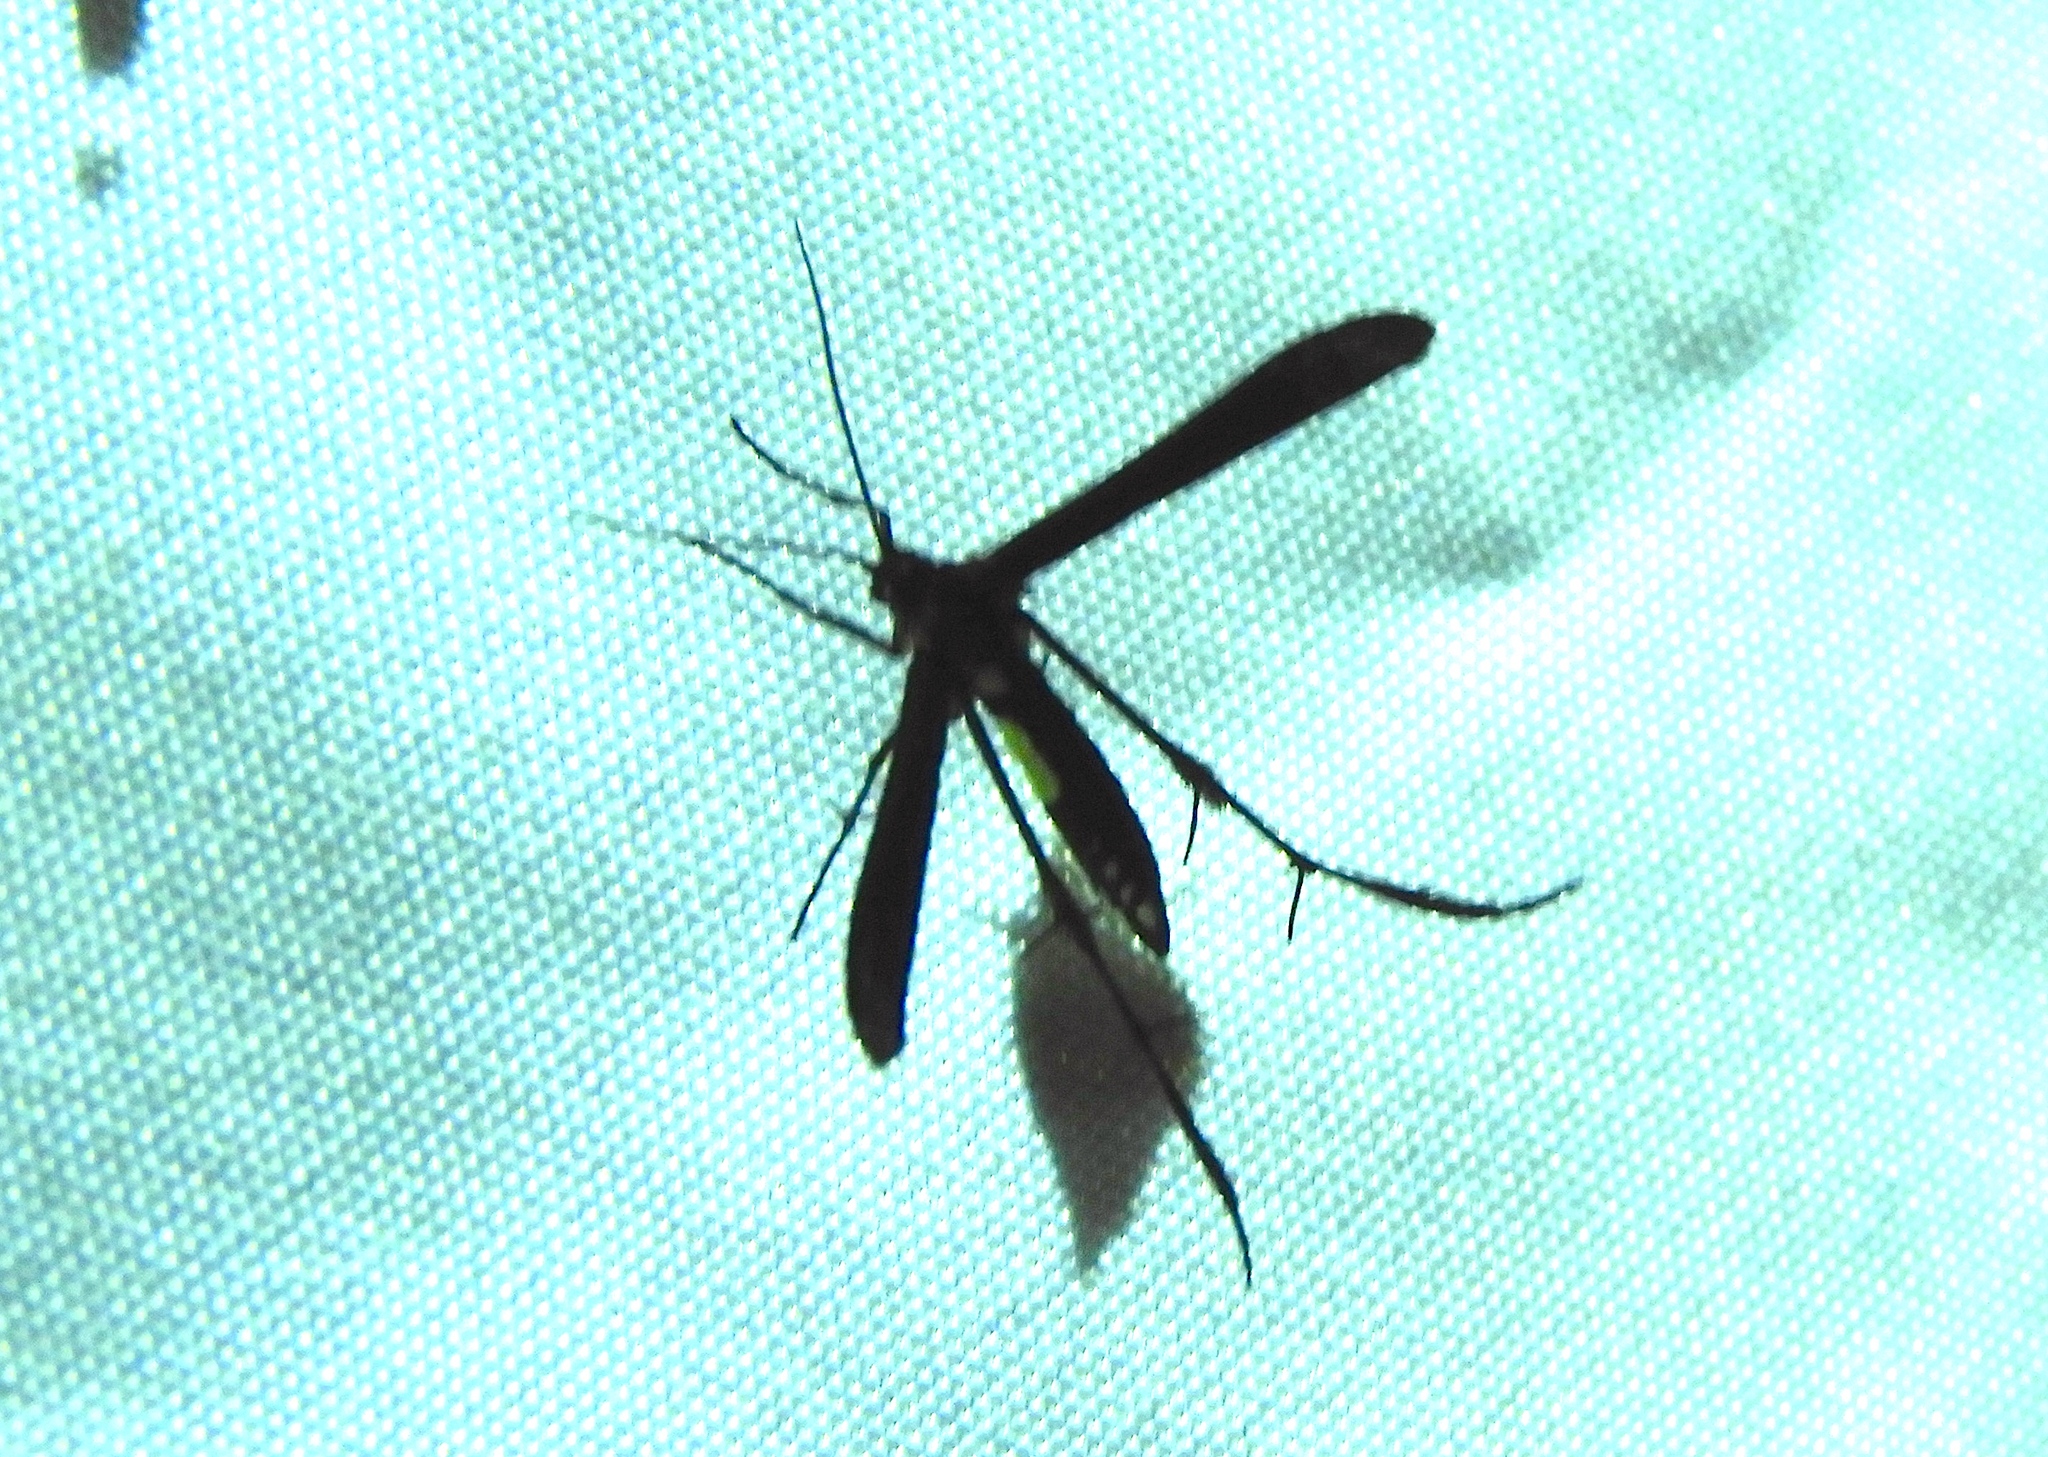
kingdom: Animalia
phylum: Arthropoda
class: Insecta
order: Lepidoptera
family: Pterophoridae
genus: Hellinsia
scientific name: Hellinsia chamelai
